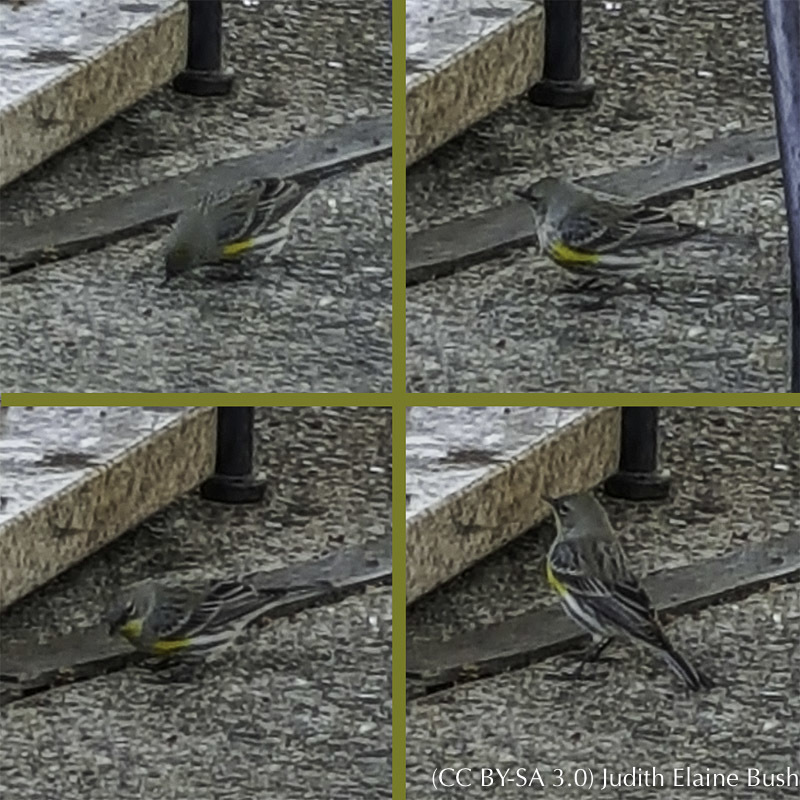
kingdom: Animalia
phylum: Chordata
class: Aves
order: Passeriformes
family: Parulidae
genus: Setophaga
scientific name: Setophaga coronata
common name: Myrtle warbler
